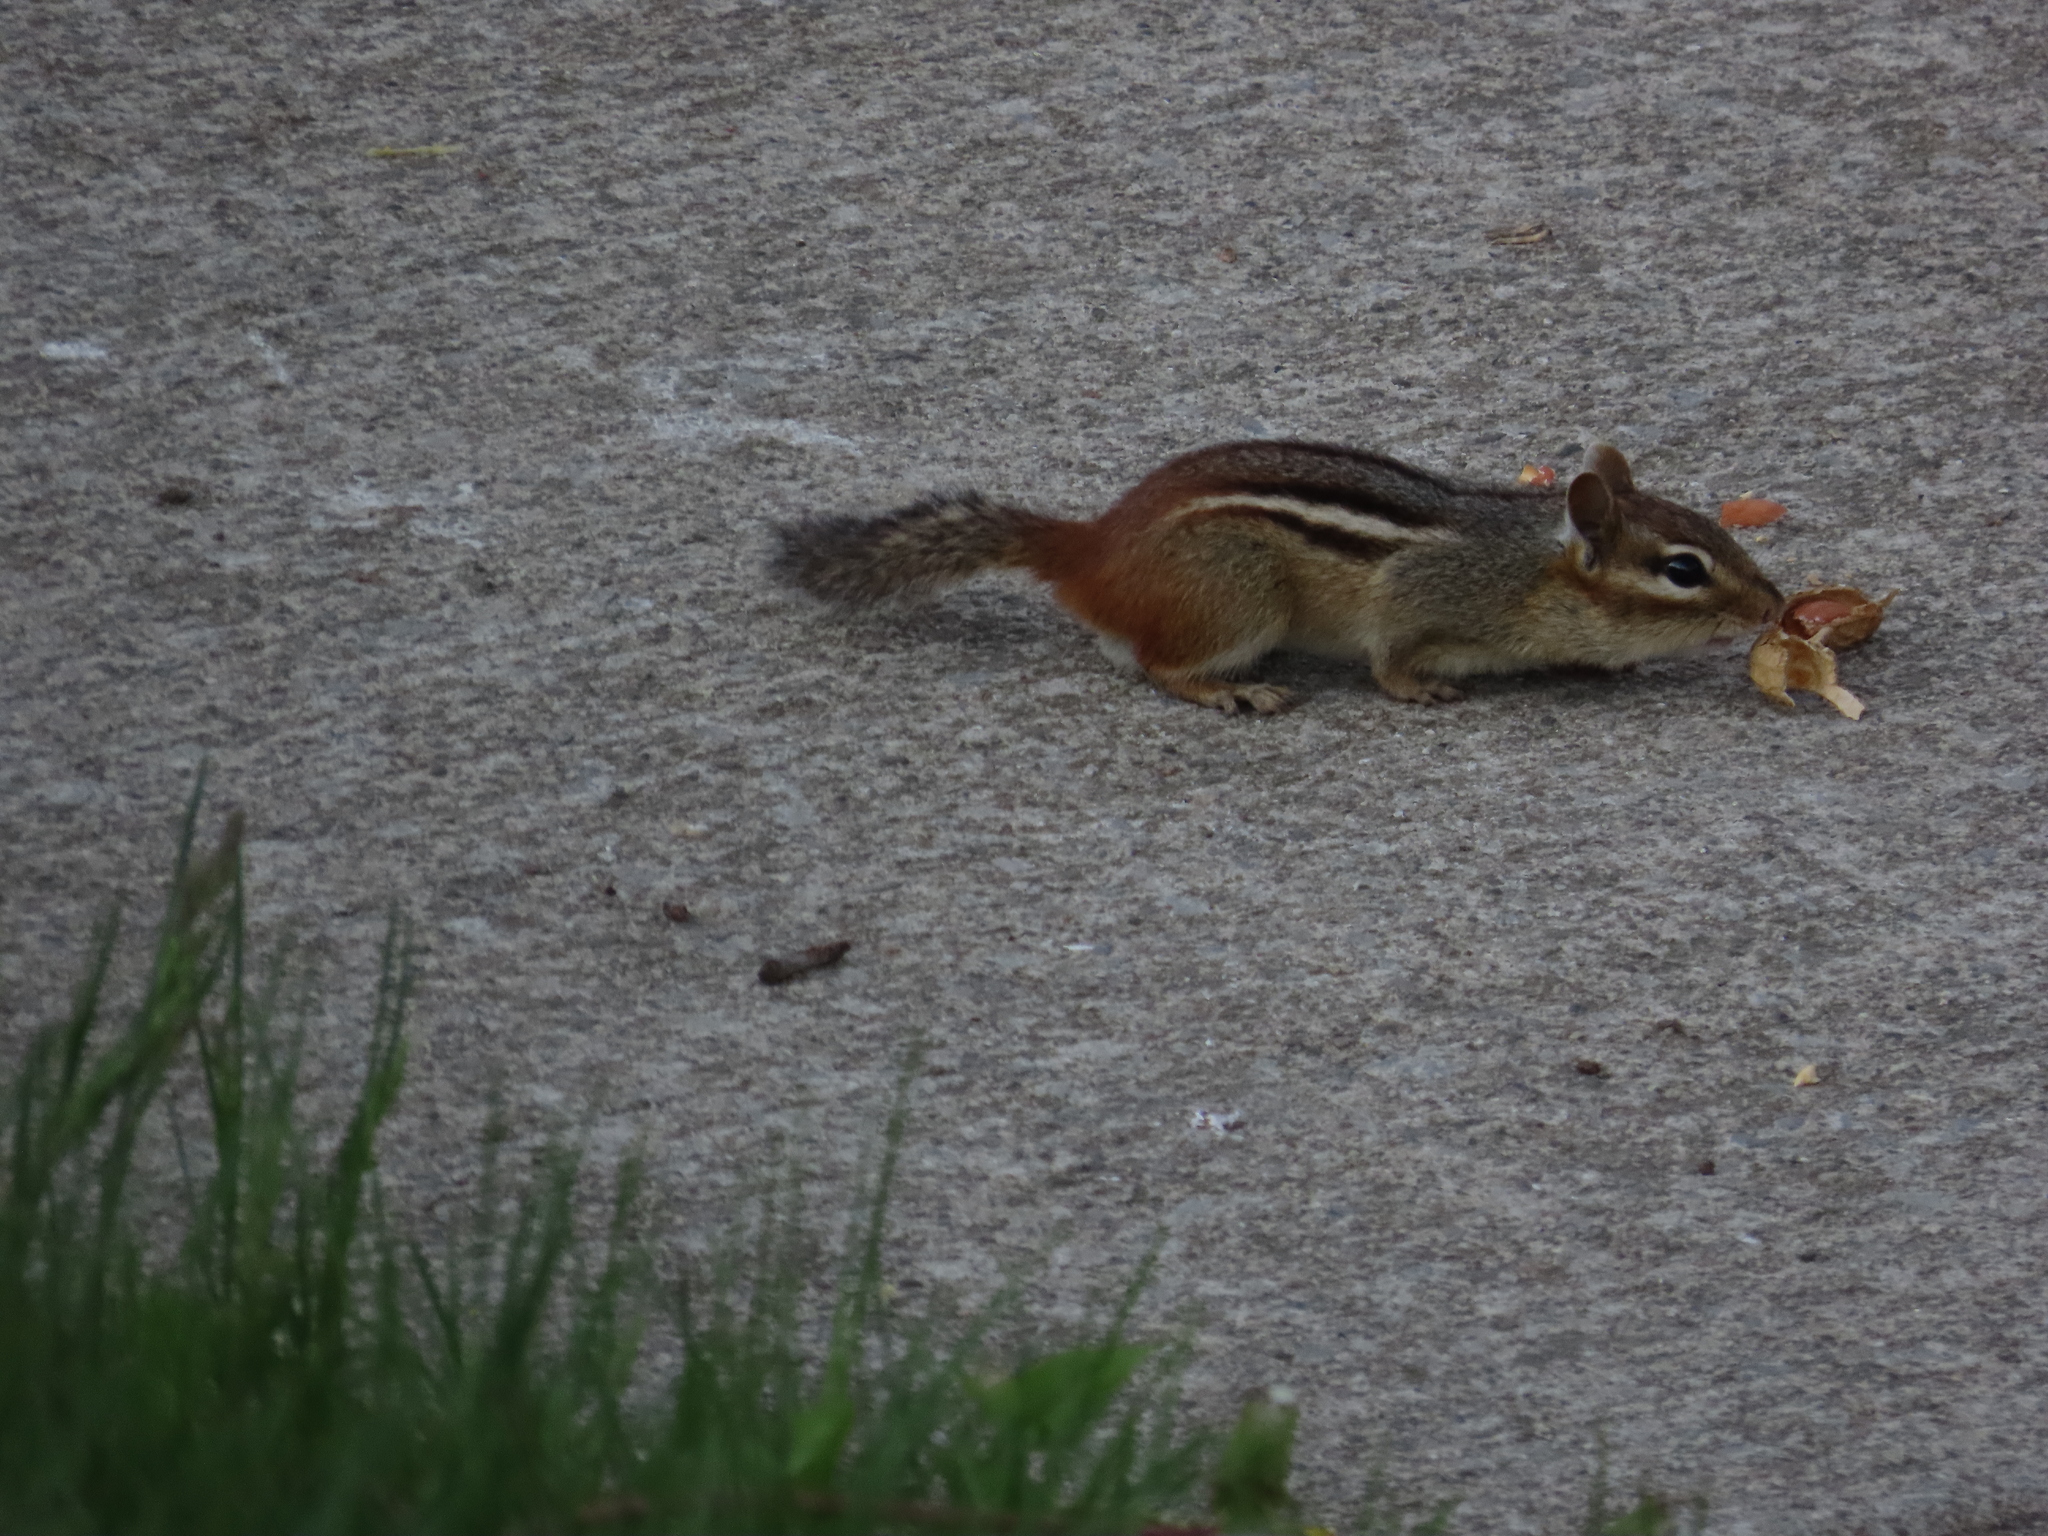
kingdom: Animalia
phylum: Chordata
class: Mammalia
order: Rodentia
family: Sciuridae
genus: Tamias
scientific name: Tamias striatus
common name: Eastern chipmunk
